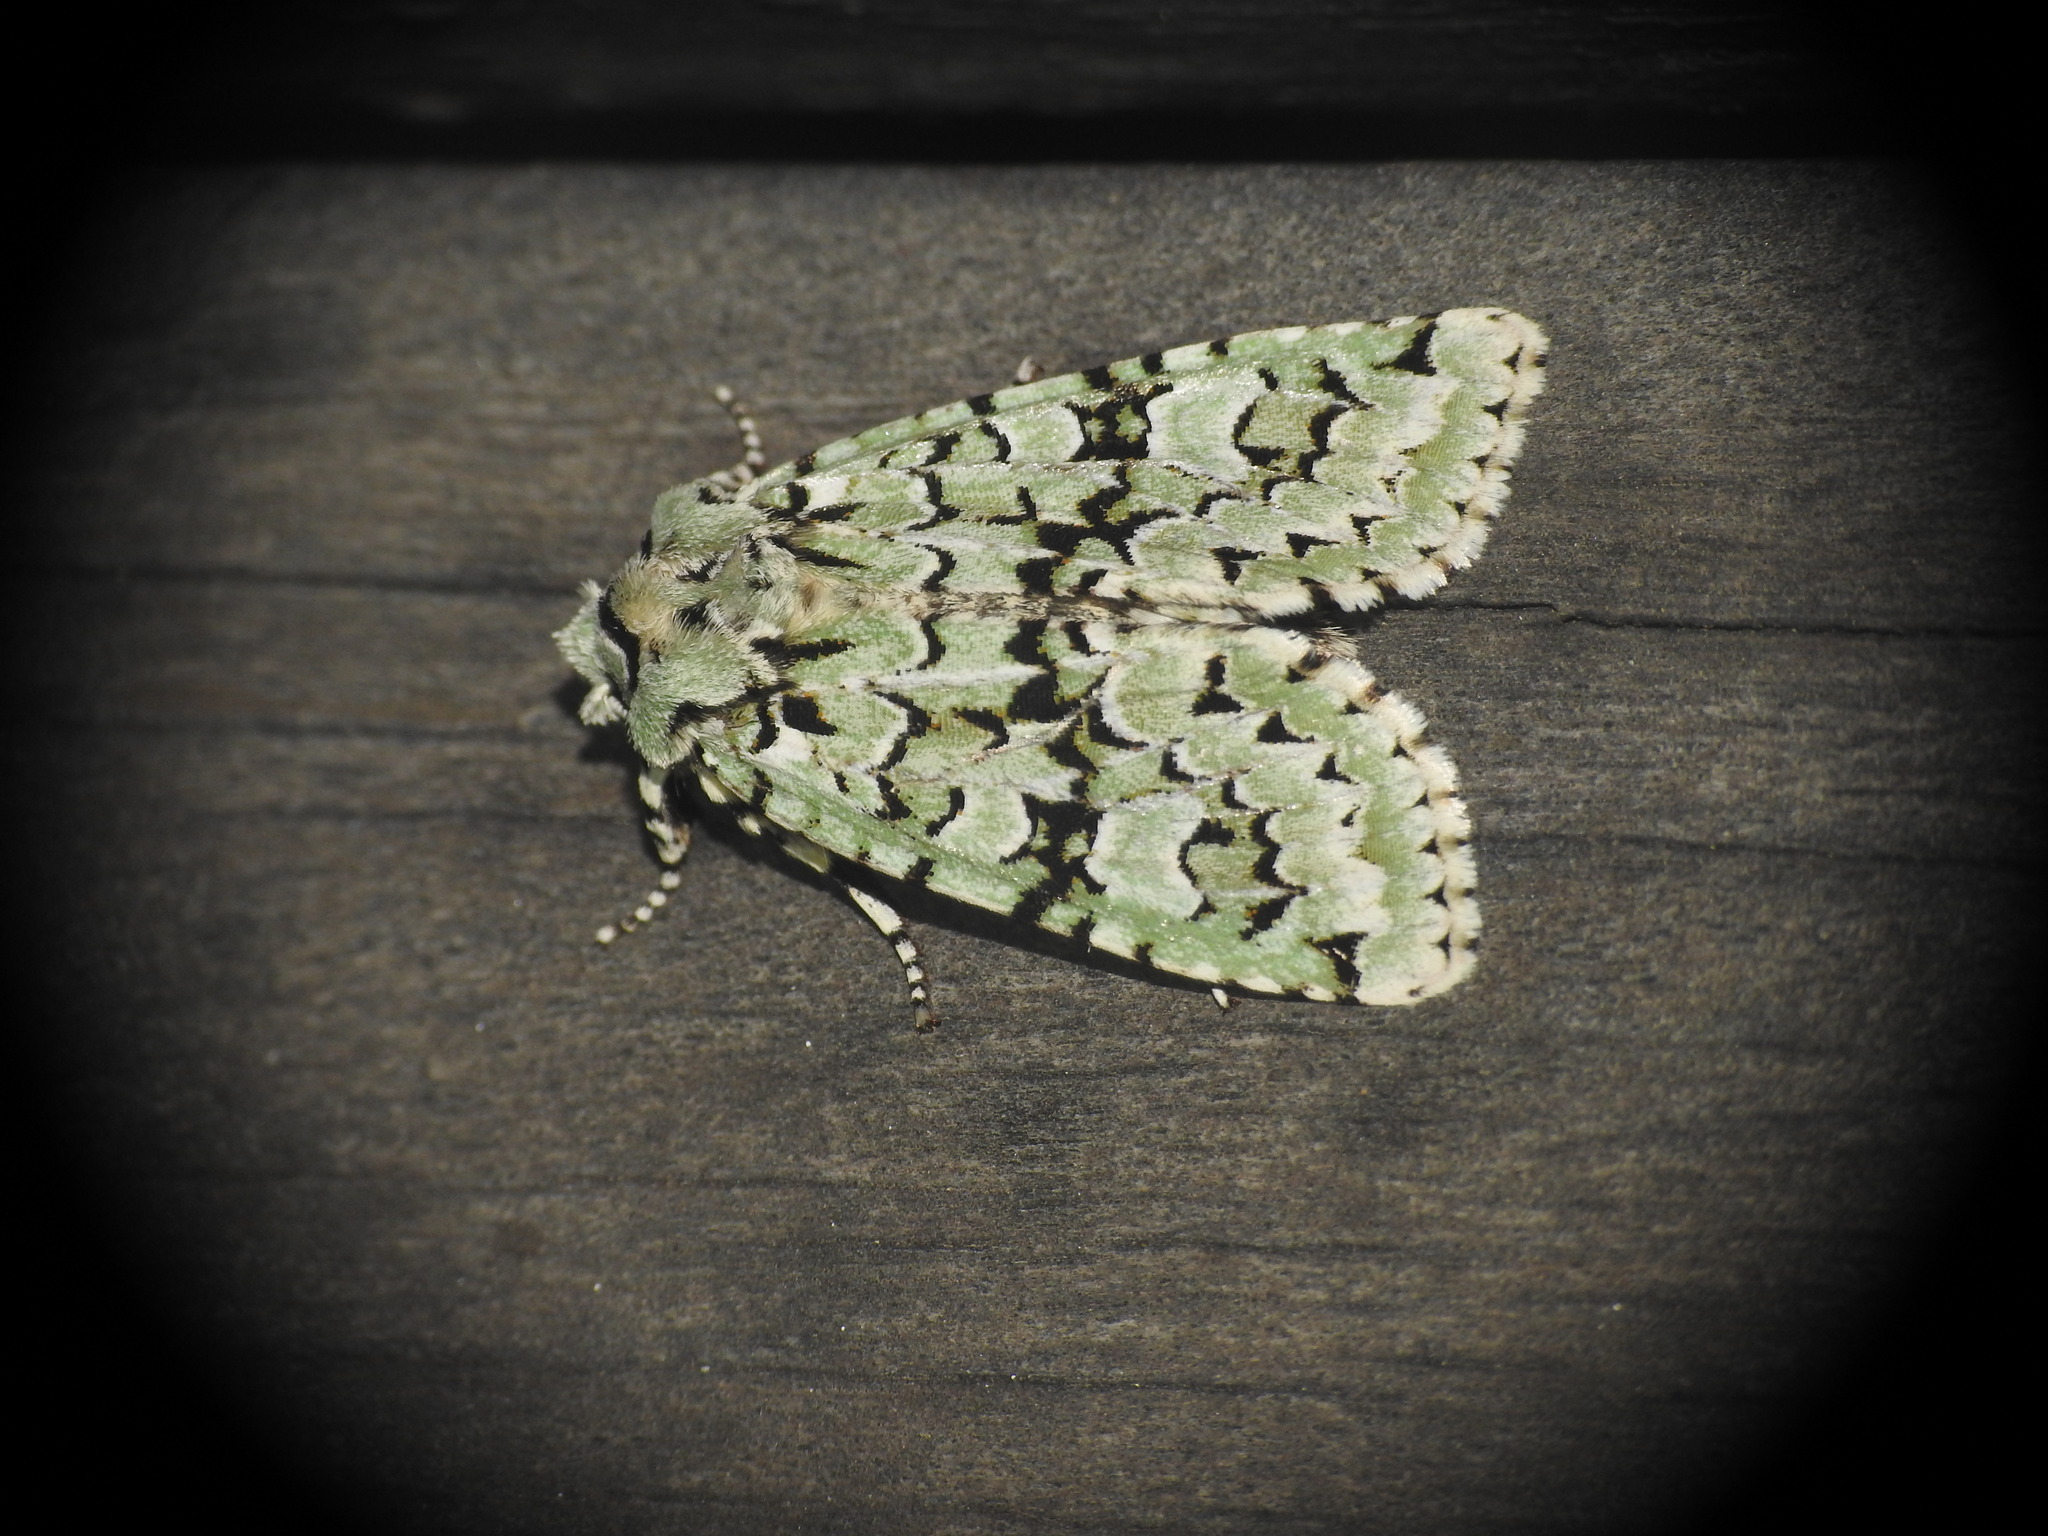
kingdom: Animalia
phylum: Arthropoda
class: Insecta
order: Lepidoptera
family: Noctuidae
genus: Griposia
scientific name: Griposia aprilina
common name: Merveille du jour
